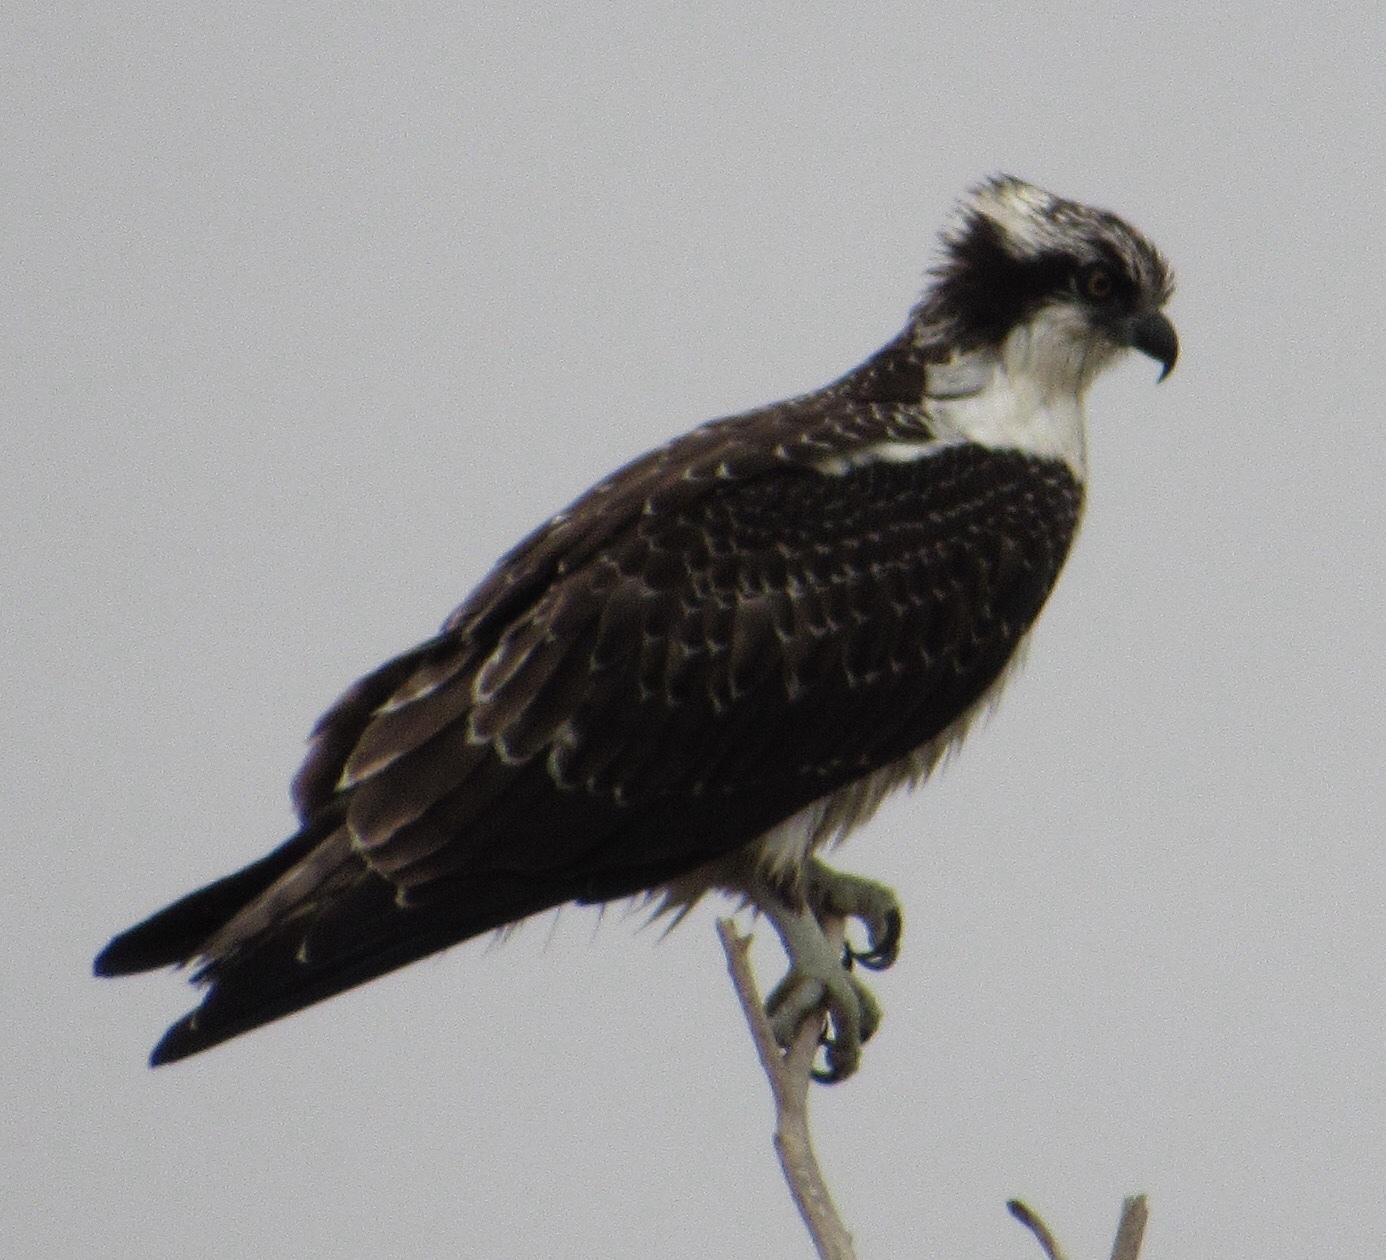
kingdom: Animalia
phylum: Chordata
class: Aves
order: Accipitriformes
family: Pandionidae
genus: Pandion
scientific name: Pandion haliaetus
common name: Osprey
